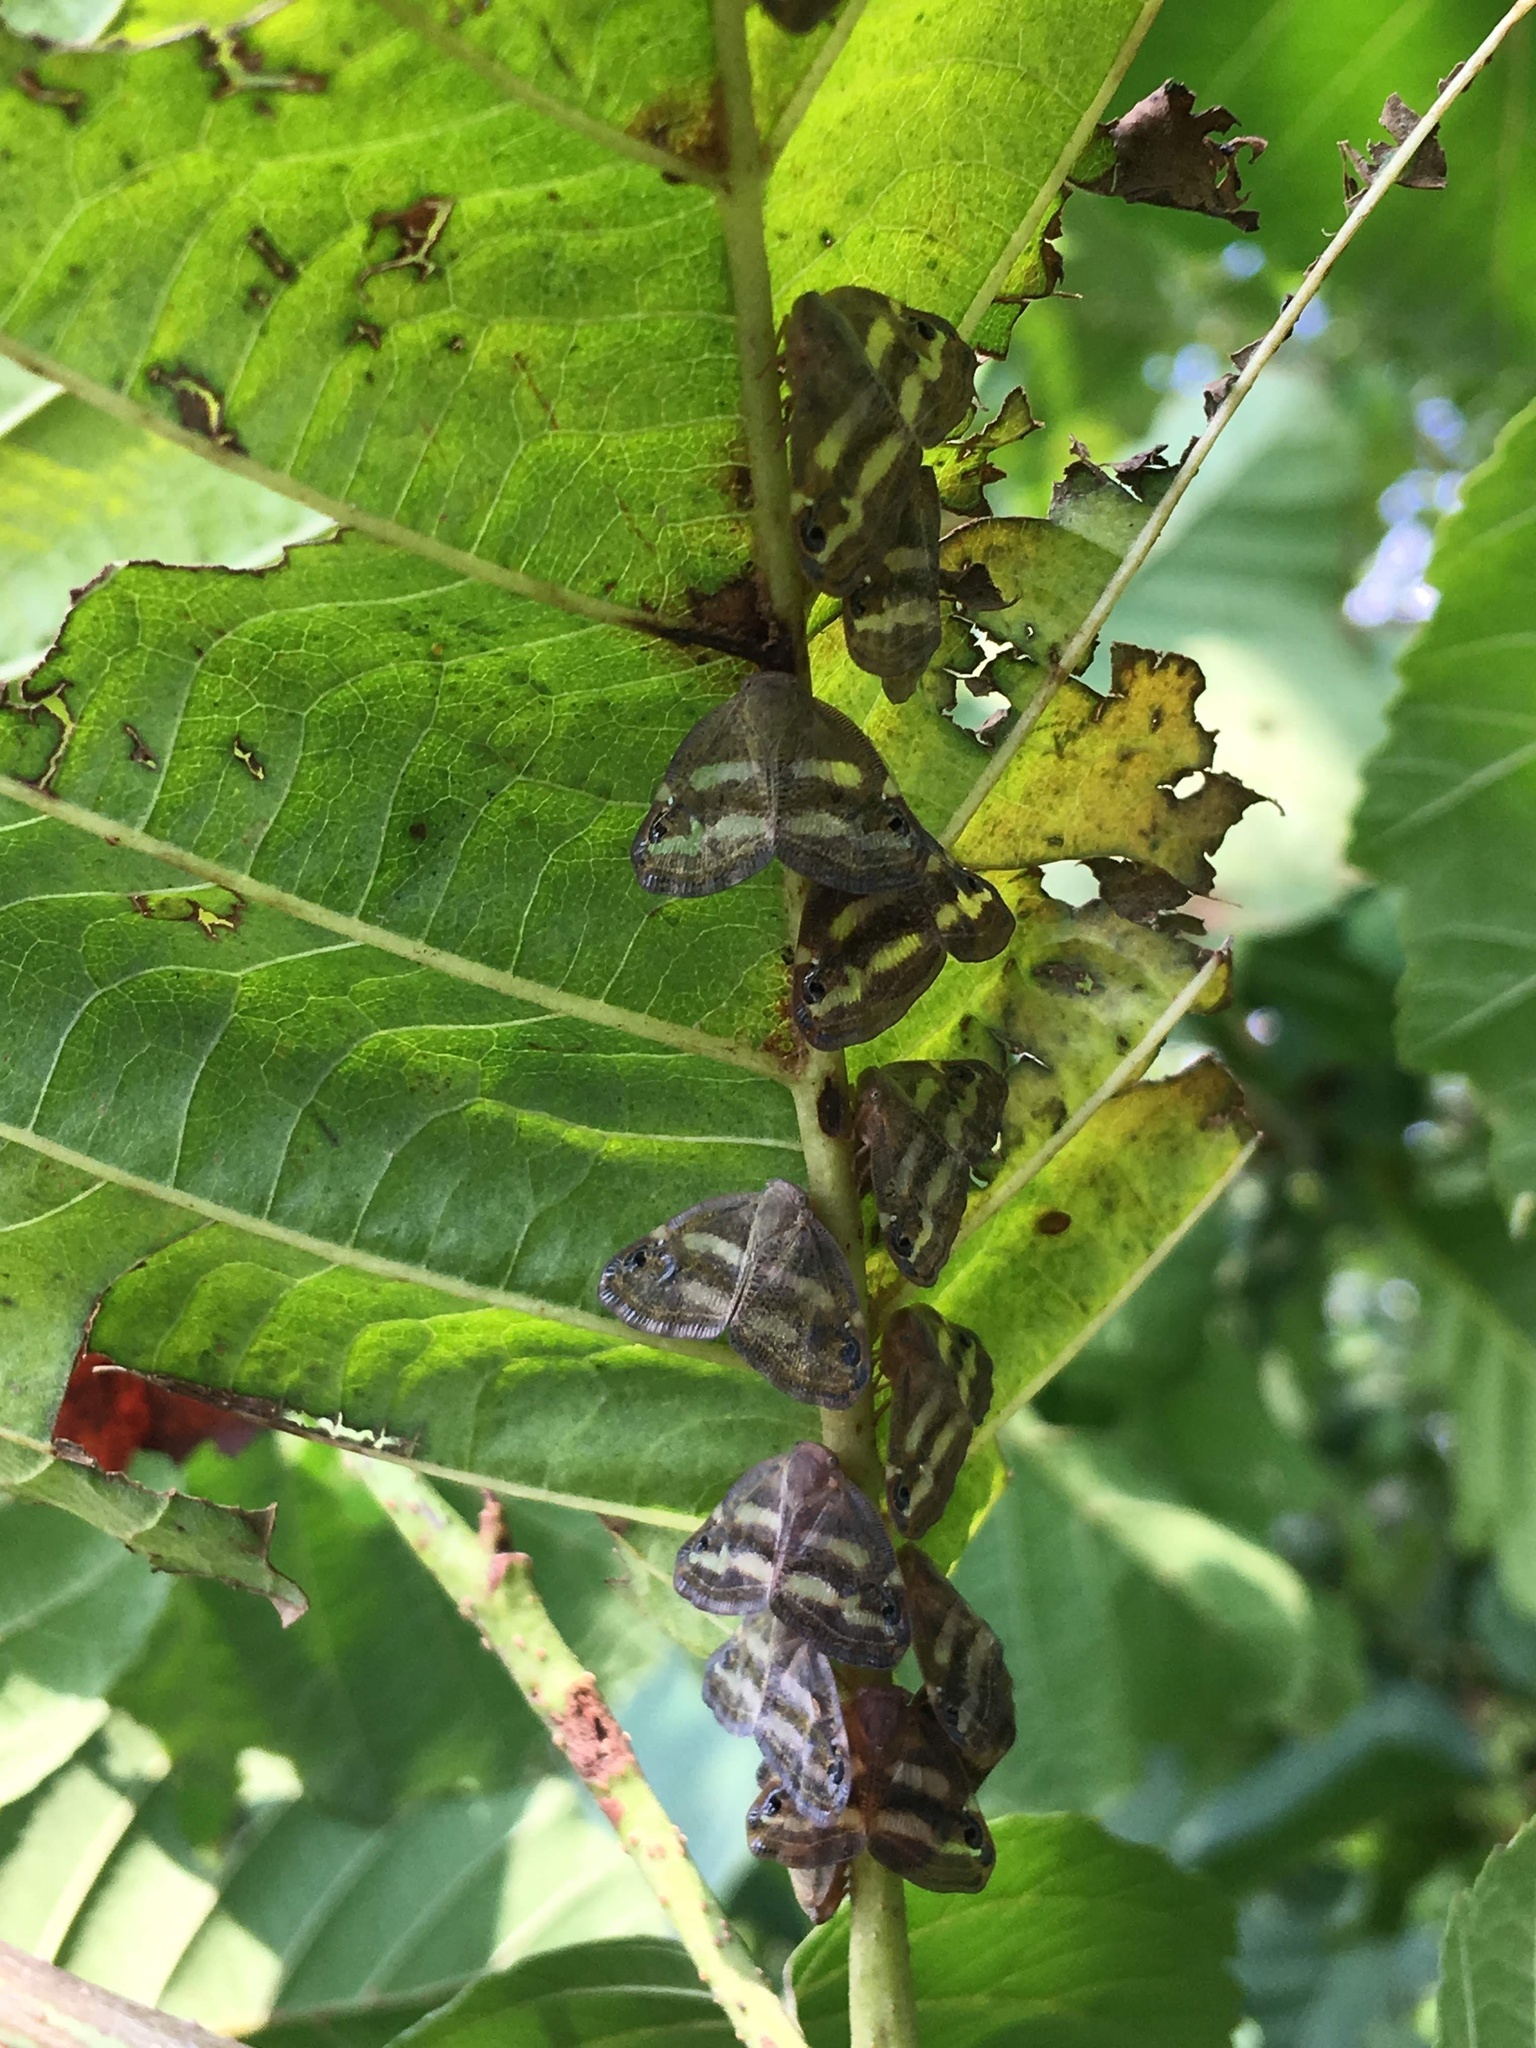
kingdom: Animalia
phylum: Arthropoda
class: Insecta
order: Hemiptera
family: Ricaniidae
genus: Orosanga
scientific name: Orosanga japonica
